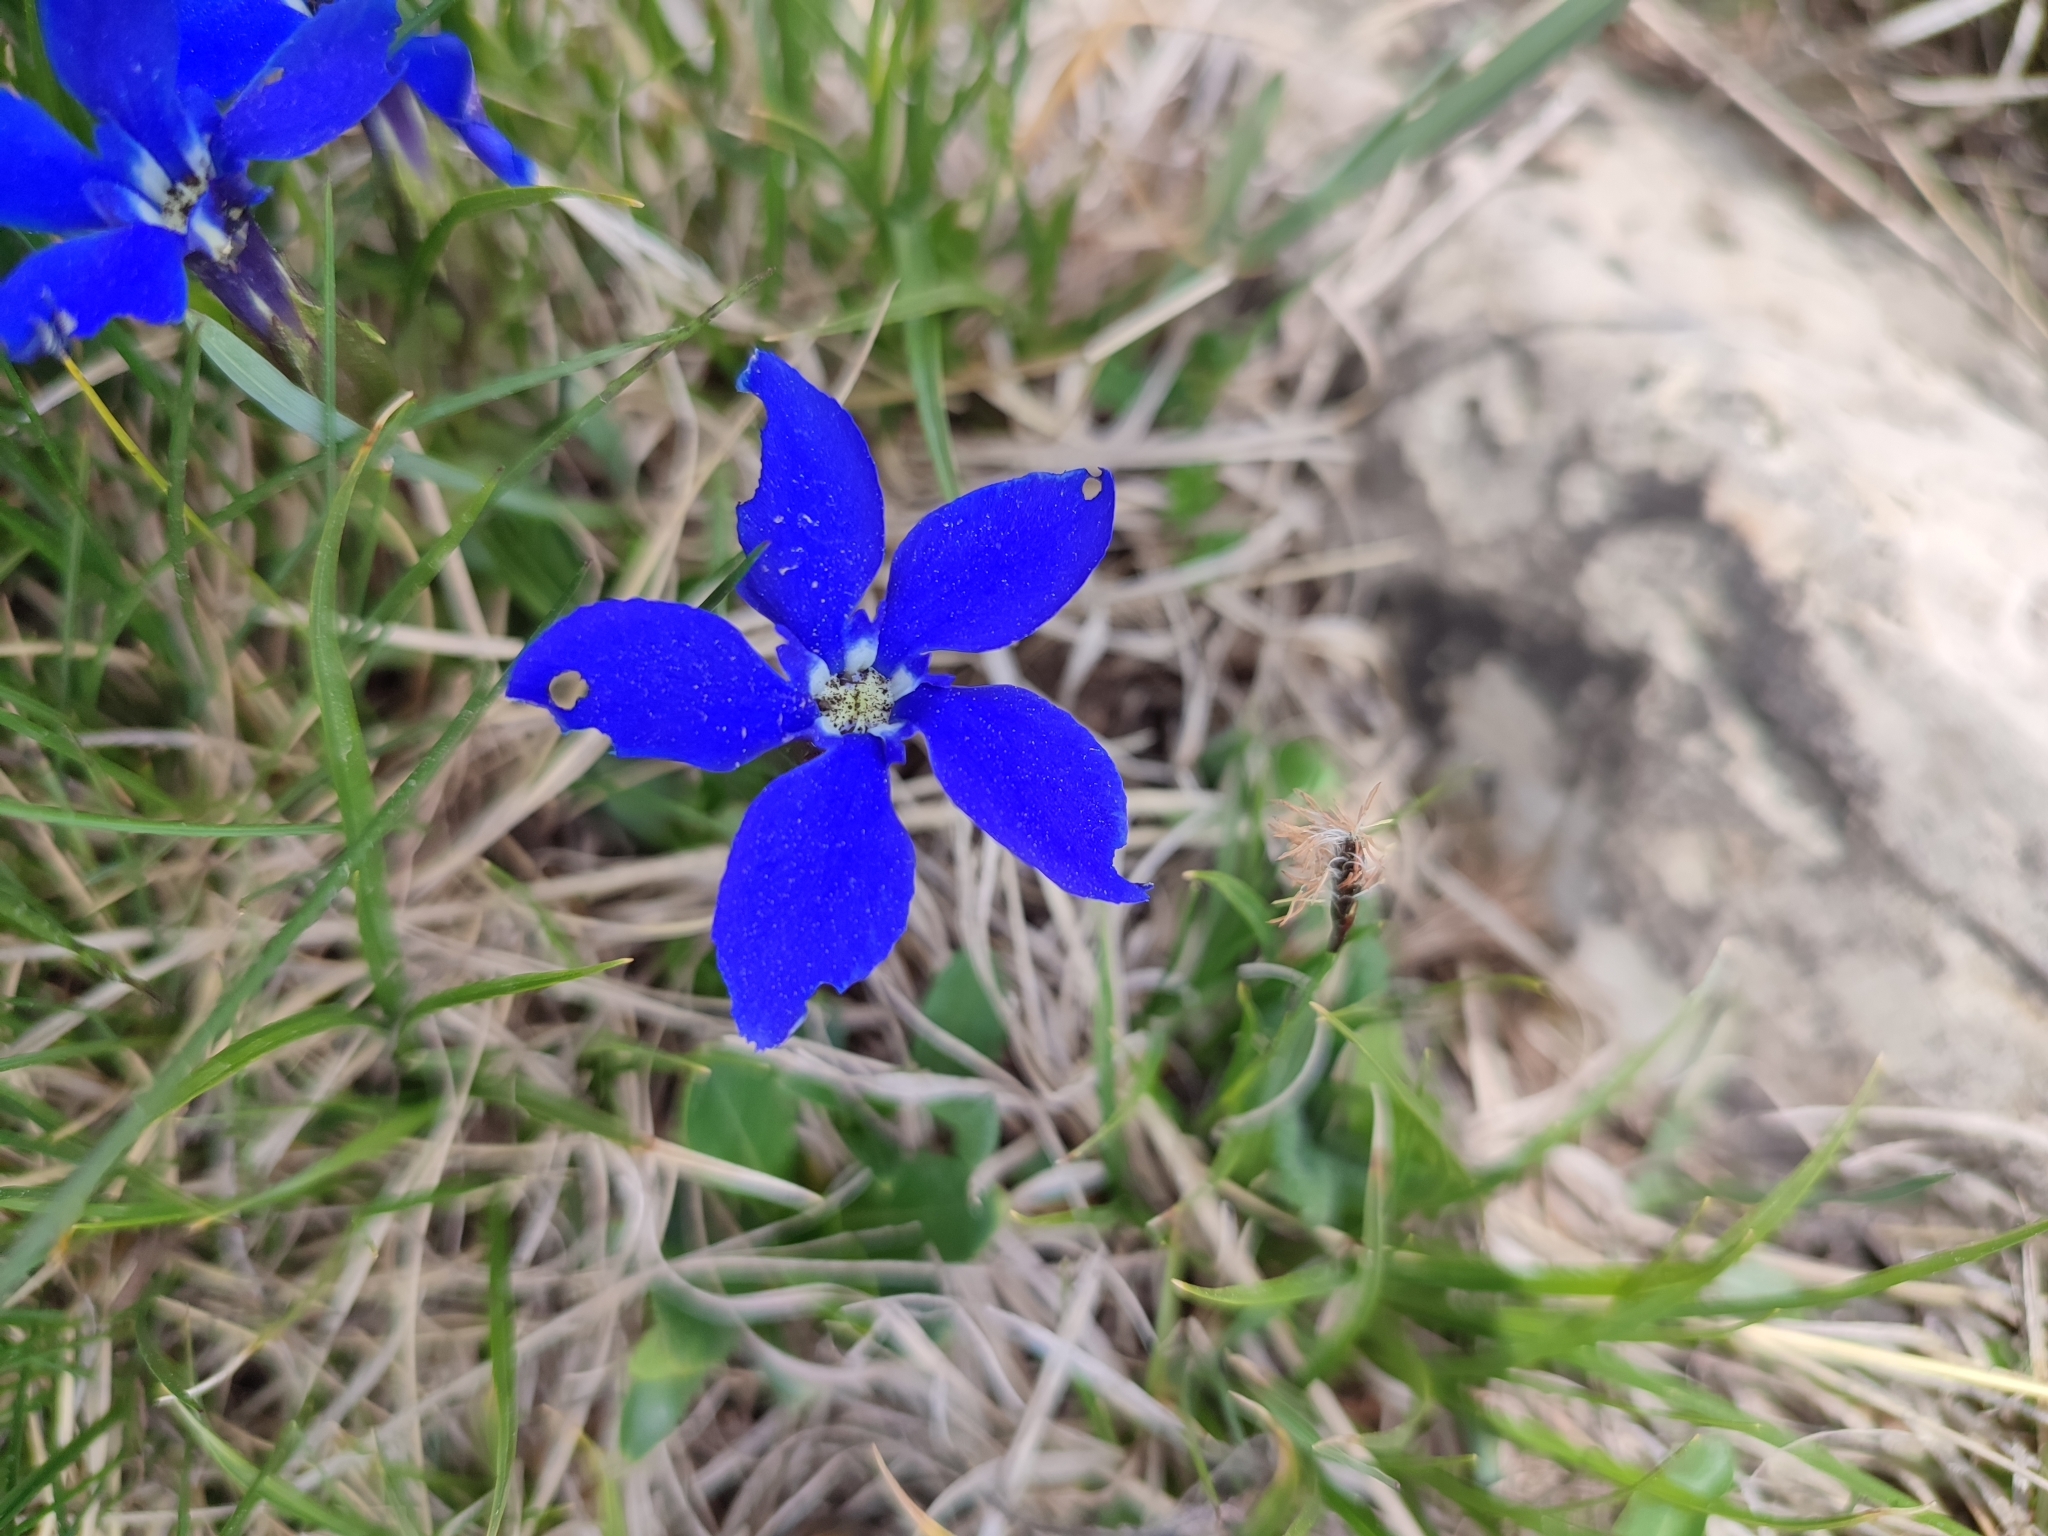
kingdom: Plantae
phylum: Tracheophyta
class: Magnoliopsida
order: Gentianales
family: Gentianaceae
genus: Gentiana
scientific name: Gentiana verna
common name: Spring gentian
